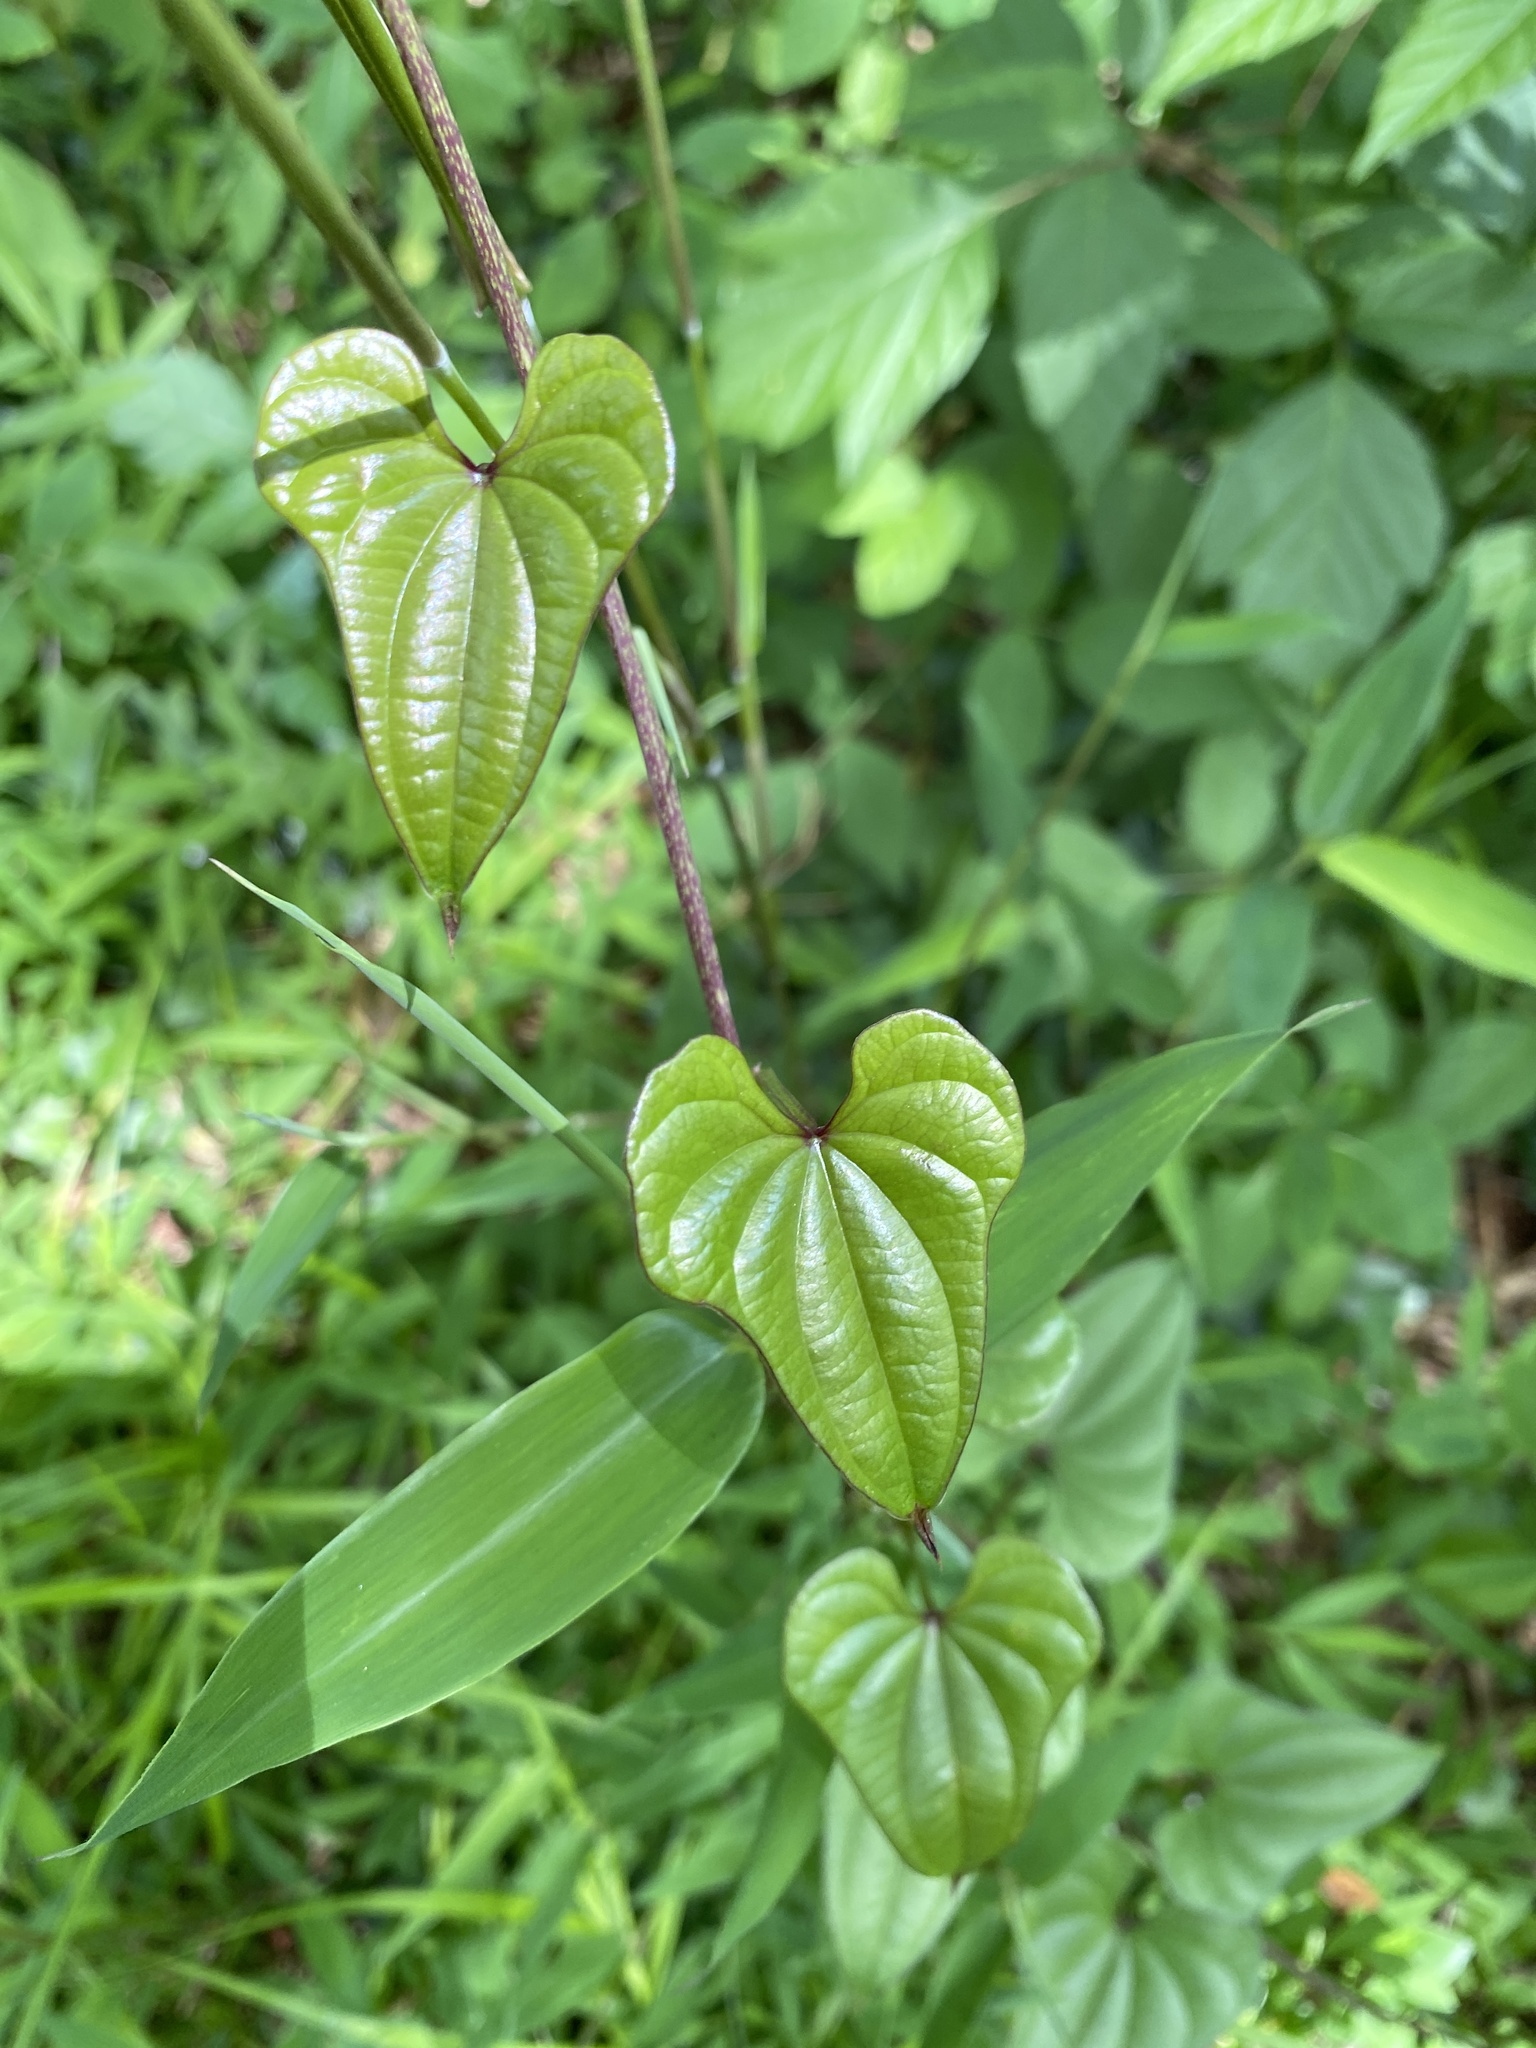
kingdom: Plantae
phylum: Tracheophyta
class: Liliopsida
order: Dioscoreales
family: Dioscoreaceae
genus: Dioscorea
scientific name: Dioscorea polystachya
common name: Chinese yam
